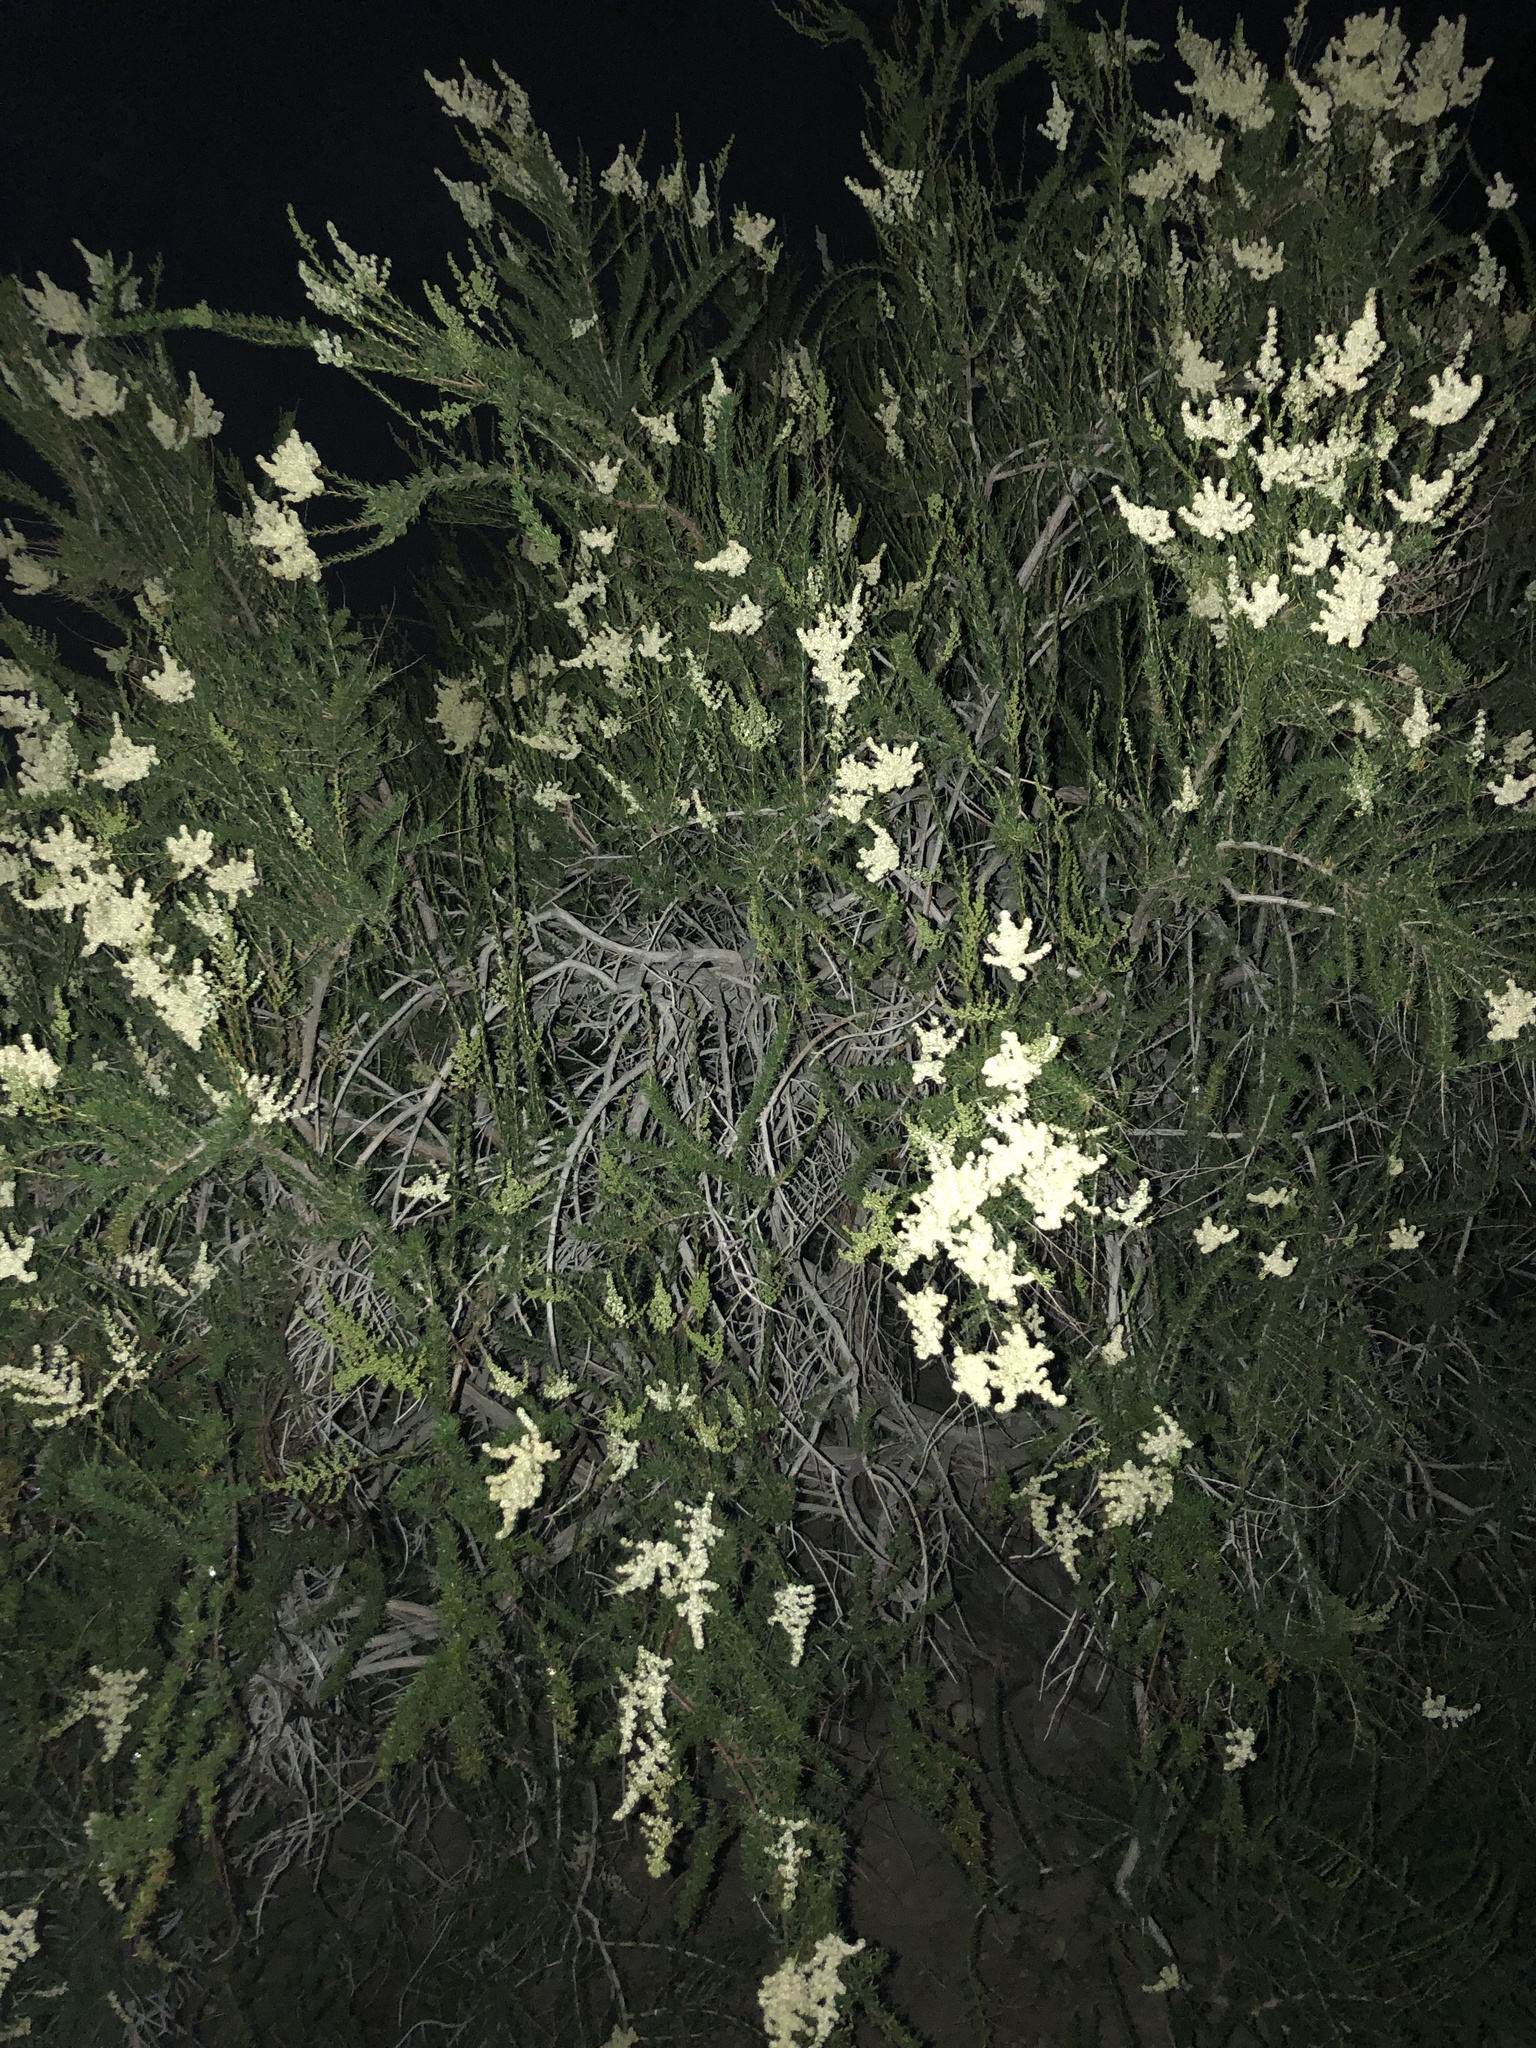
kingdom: Plantae
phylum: Tracheophyta
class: Magnoliopsida
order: Rosales
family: Rosaceae
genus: Adenostoma
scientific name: Adenostoma fasciculatum
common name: Chamise
